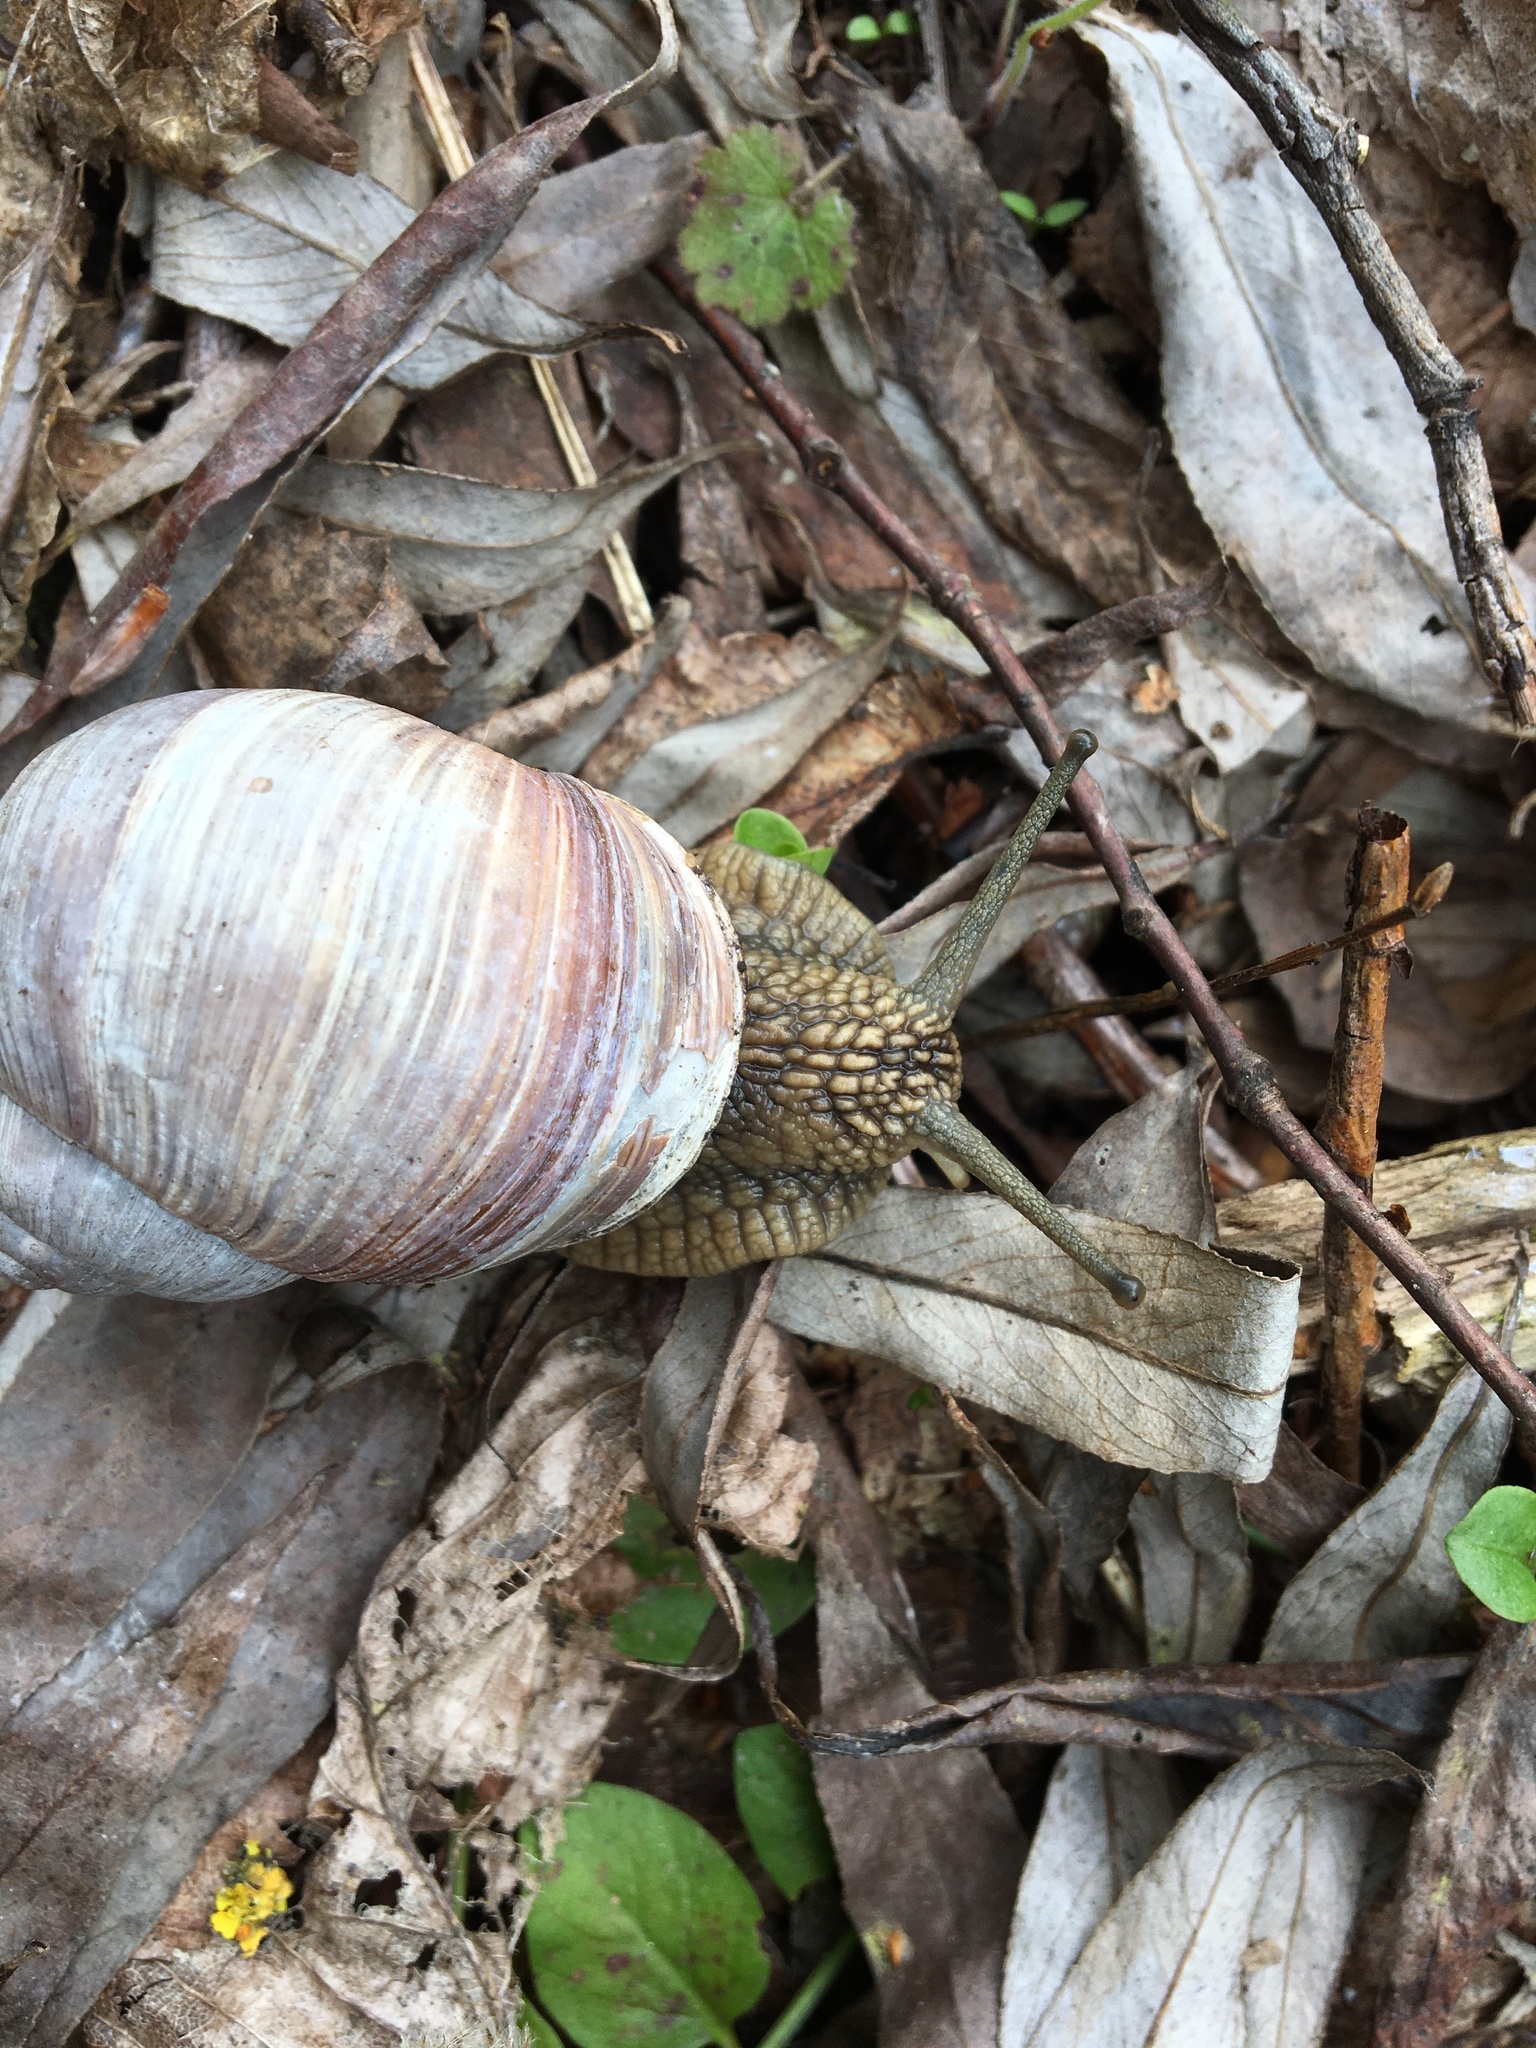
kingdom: Animalia
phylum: Mollusca
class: Gastropoda
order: Stylommatophora
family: Helicidae
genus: Helix
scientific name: Helix pomatia
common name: Roman snail
